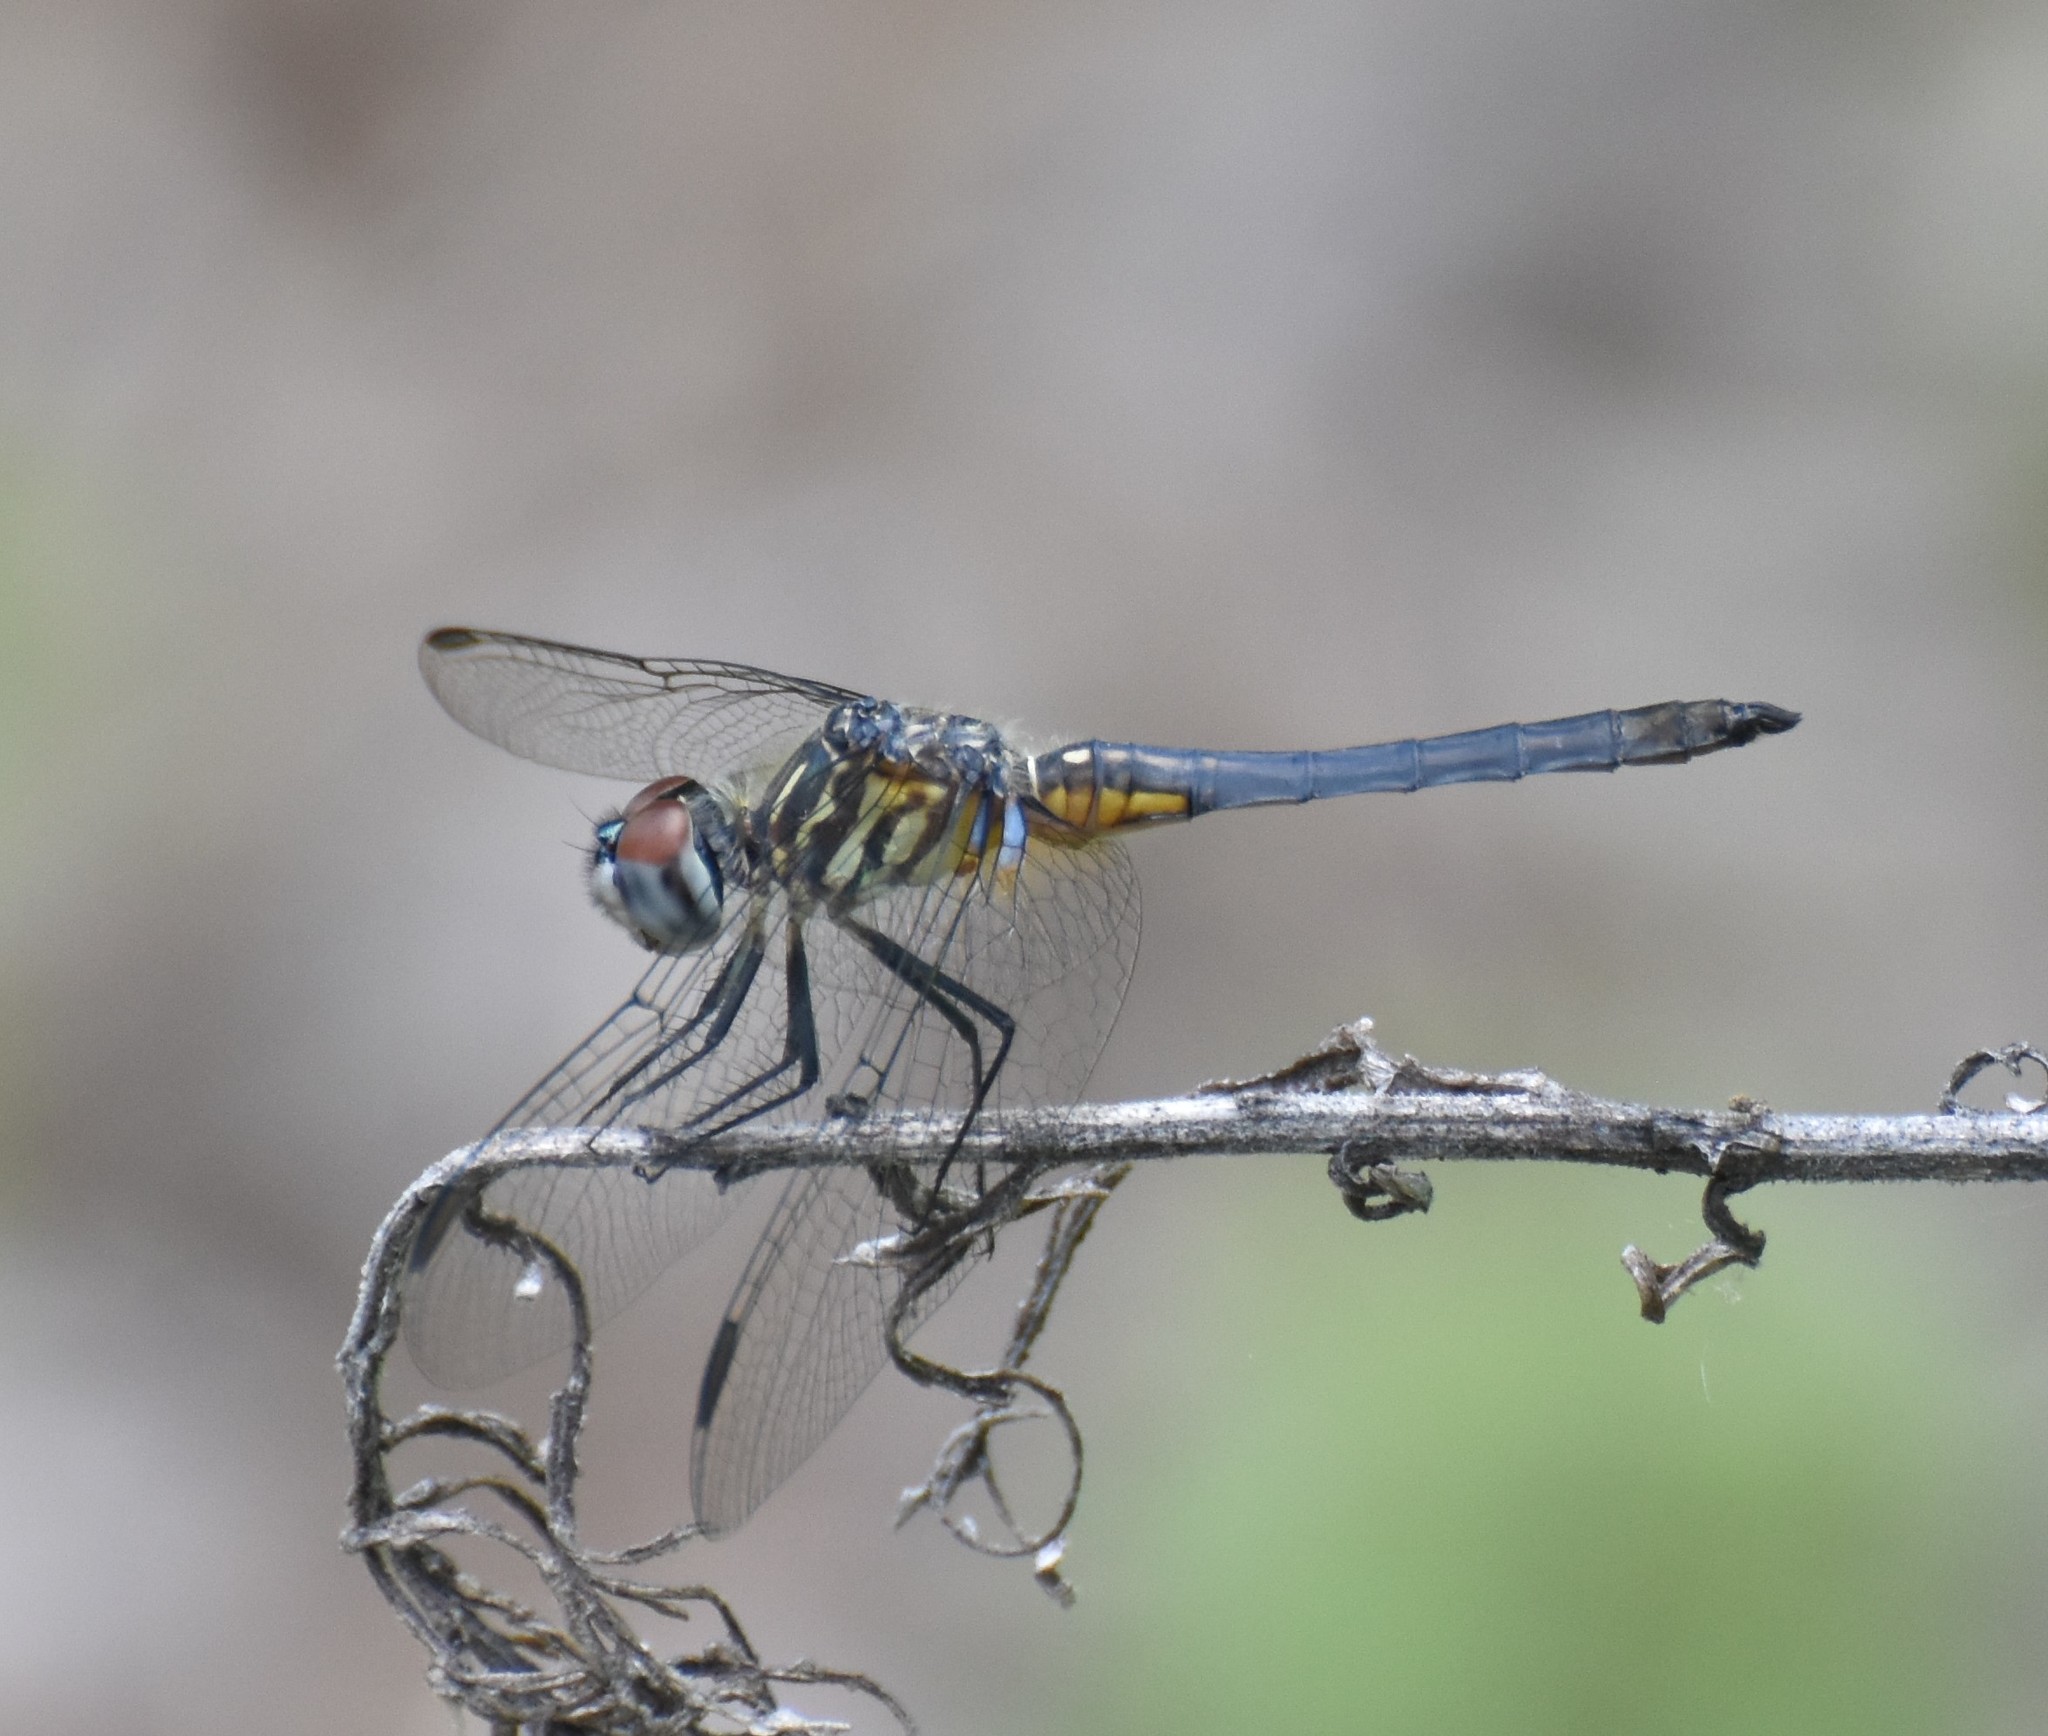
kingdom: Animalia
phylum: Arthropoda
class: Insecta
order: Odonata
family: Libellulidae
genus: Pachydiplax
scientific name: Pachydiplax longipennis
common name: Blue dasher
